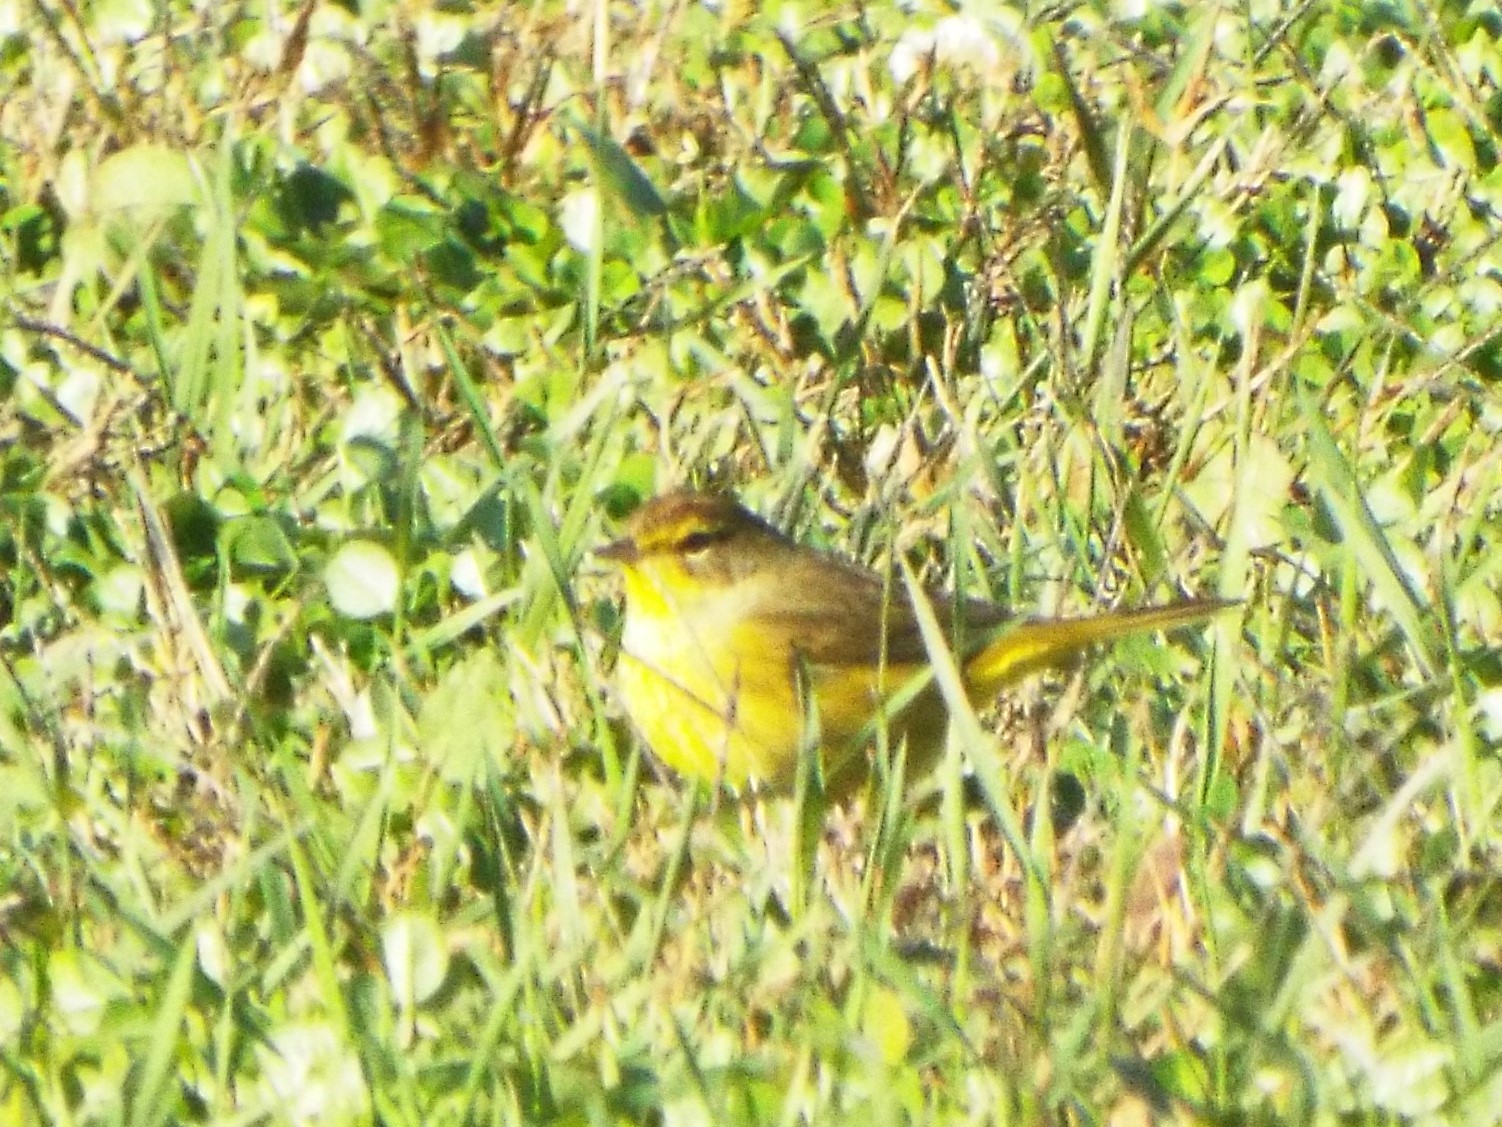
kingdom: Animalia
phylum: Chordata
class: Aves
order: Passeriformes
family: Parulidae
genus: Setophaga
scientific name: Setophaga palmarum
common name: Palm warbler
